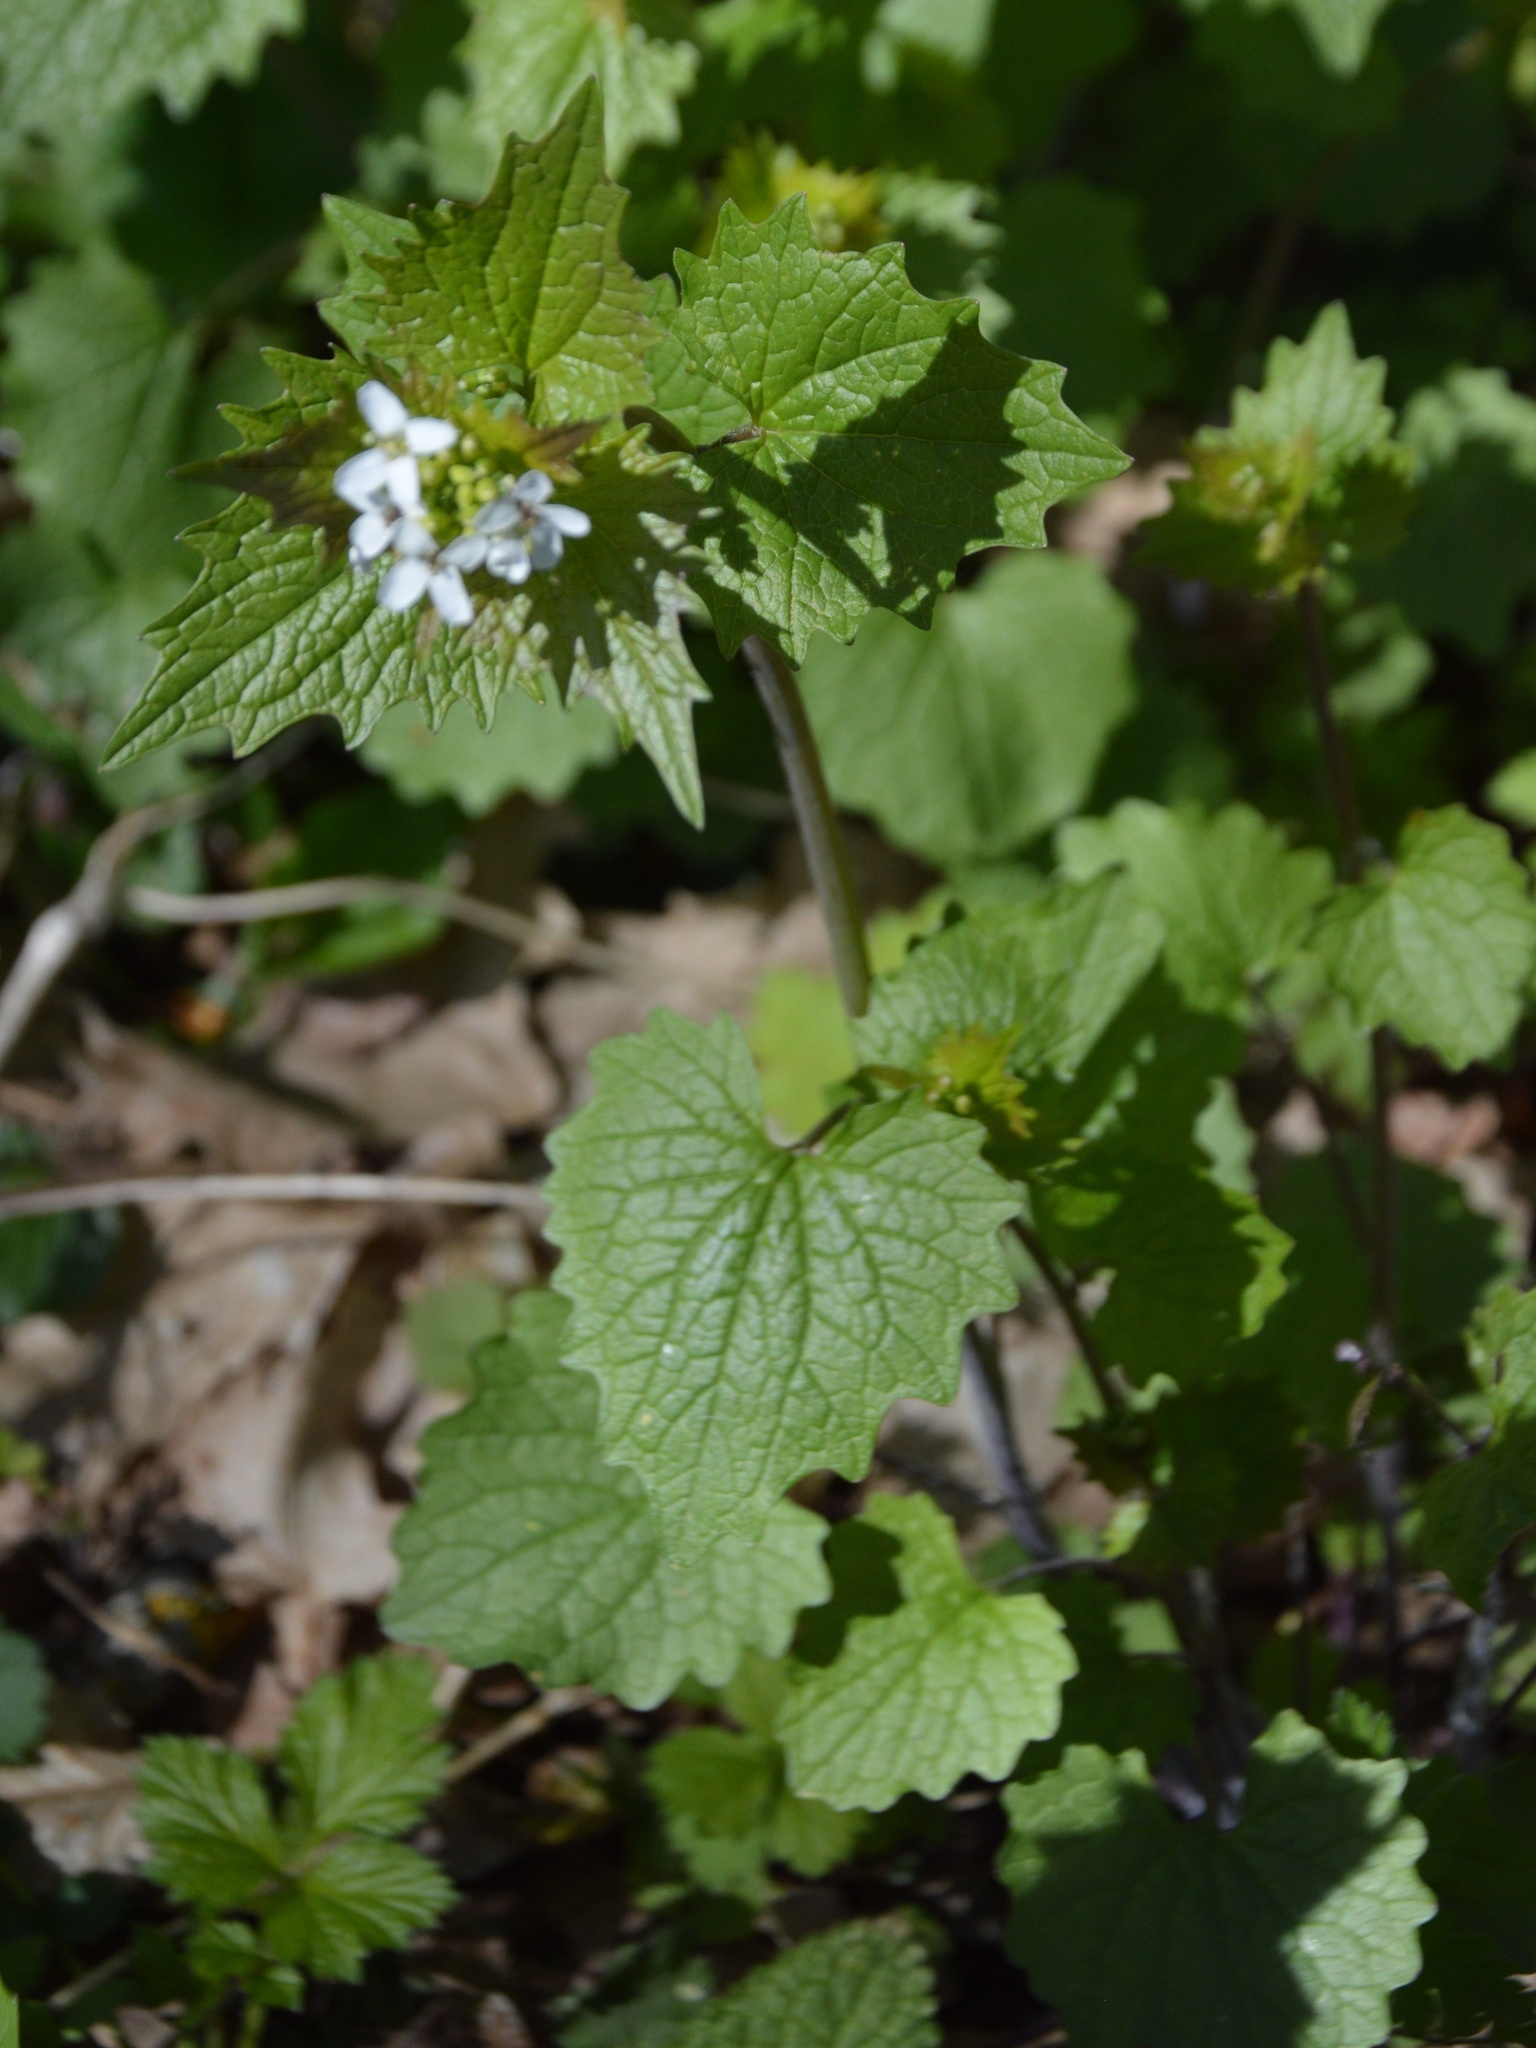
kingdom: Plantae
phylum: Tracheophyta
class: Magnoliopsida
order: Brassicales
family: Brassicaceae
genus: Alliaria
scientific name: Alliaria petiolata
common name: Garlic mustard
